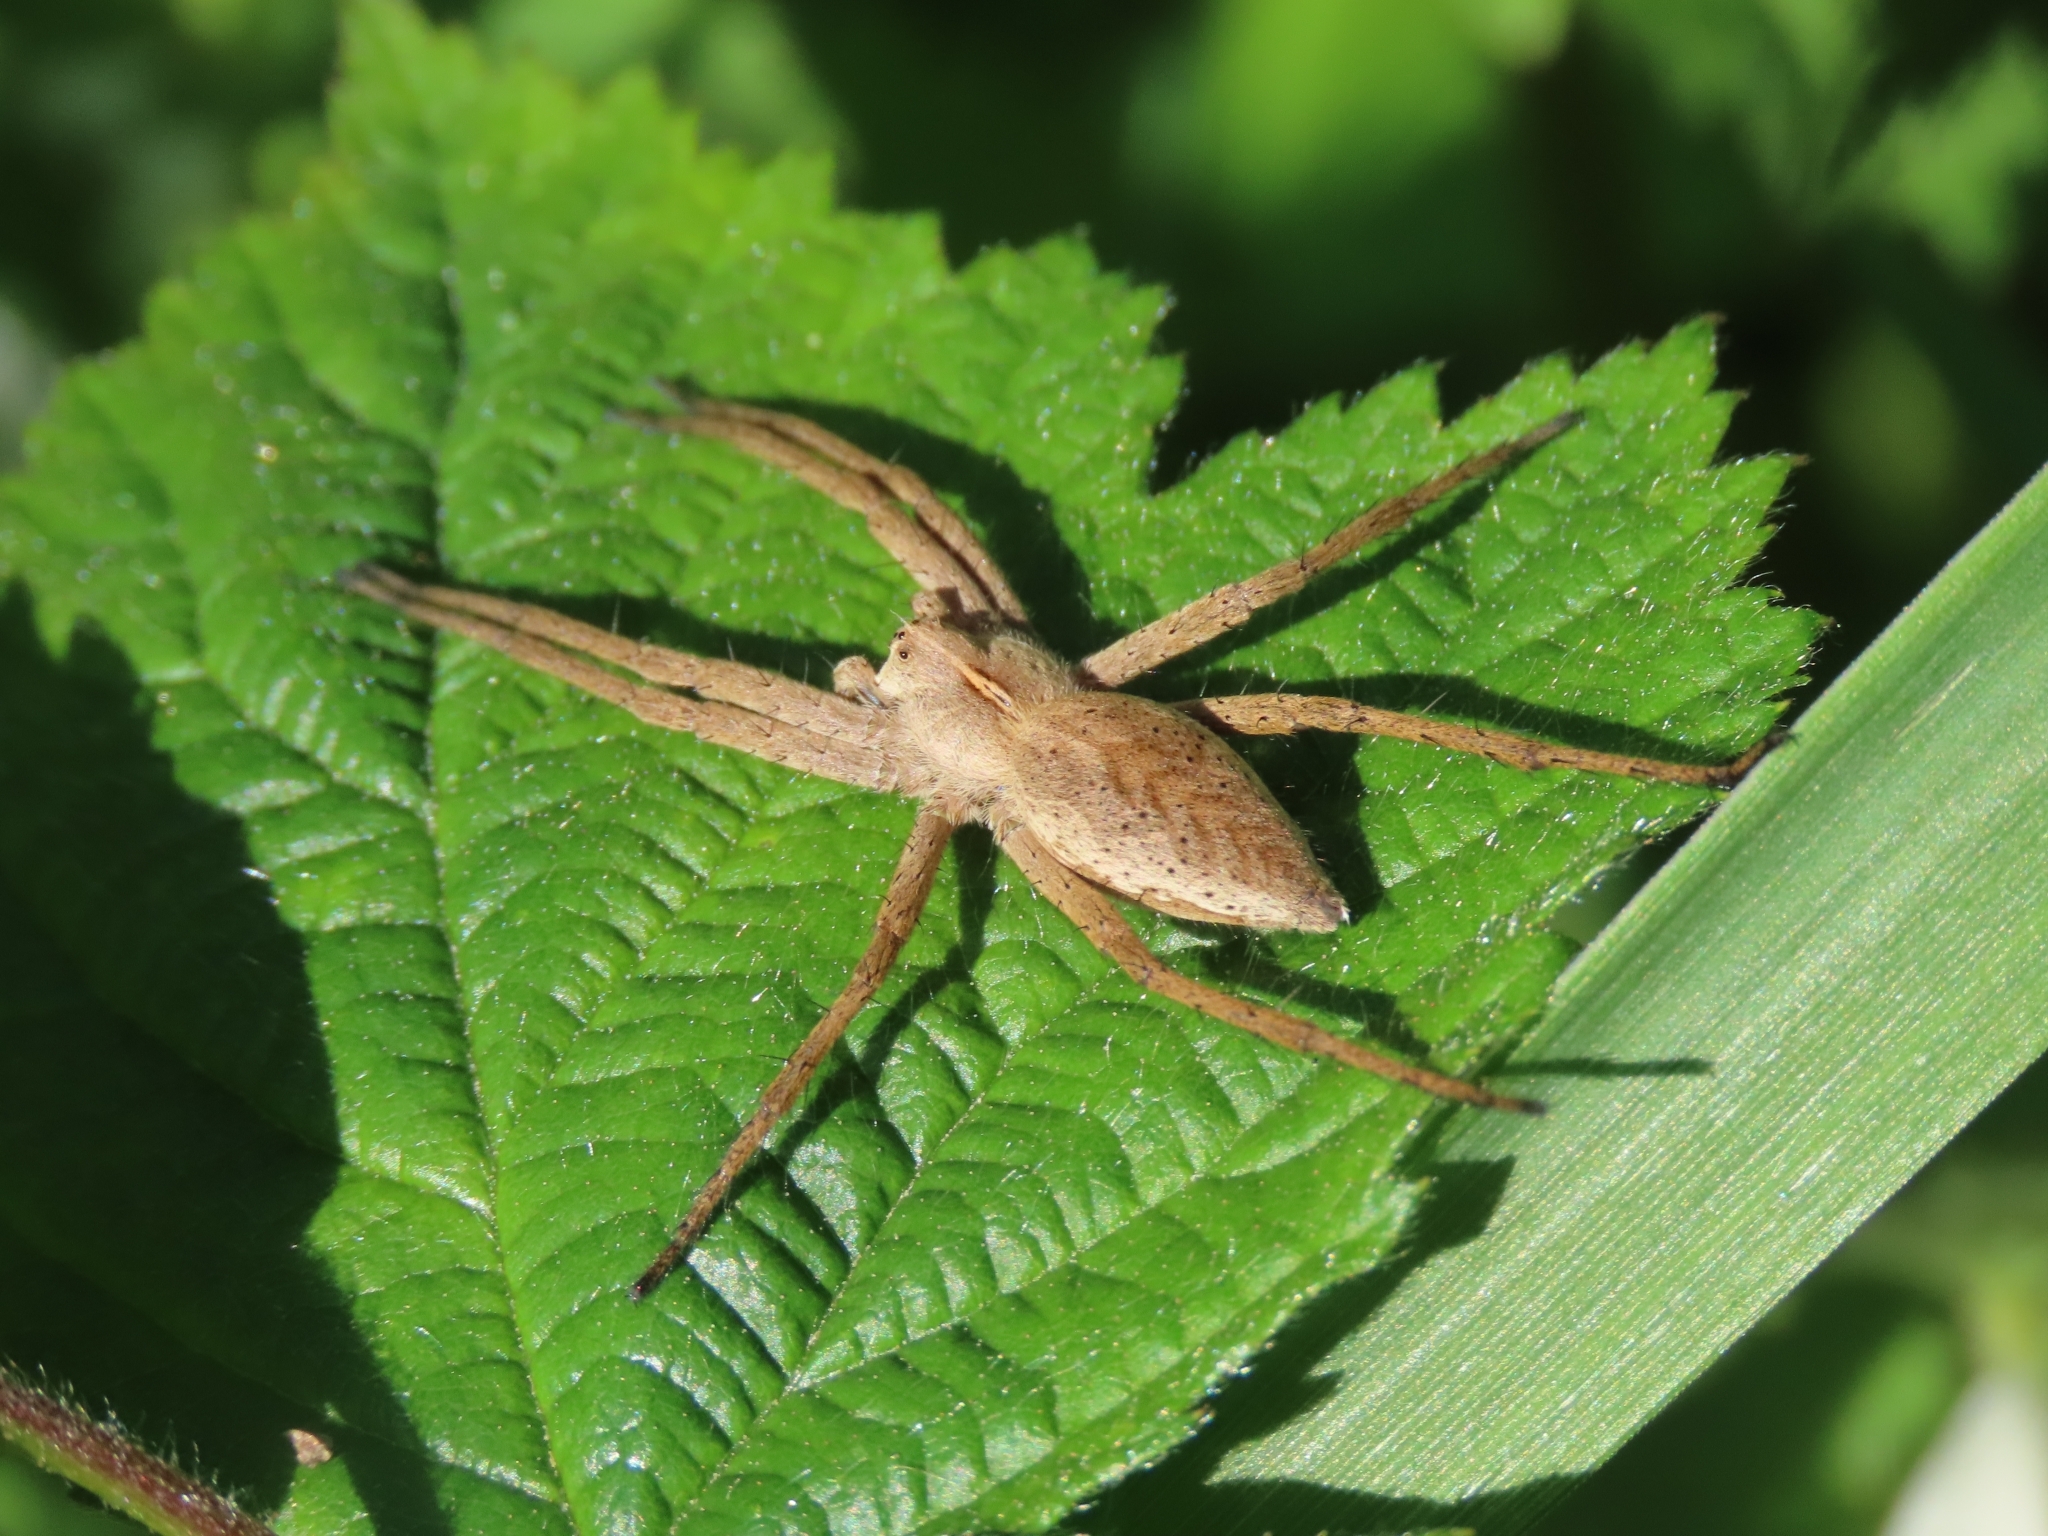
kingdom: Animalia
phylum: Arthropoda
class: Arachnida
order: Araneae
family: Pisauridae
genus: Pisaura
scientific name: Pisaura mirabilis
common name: Tent spider
